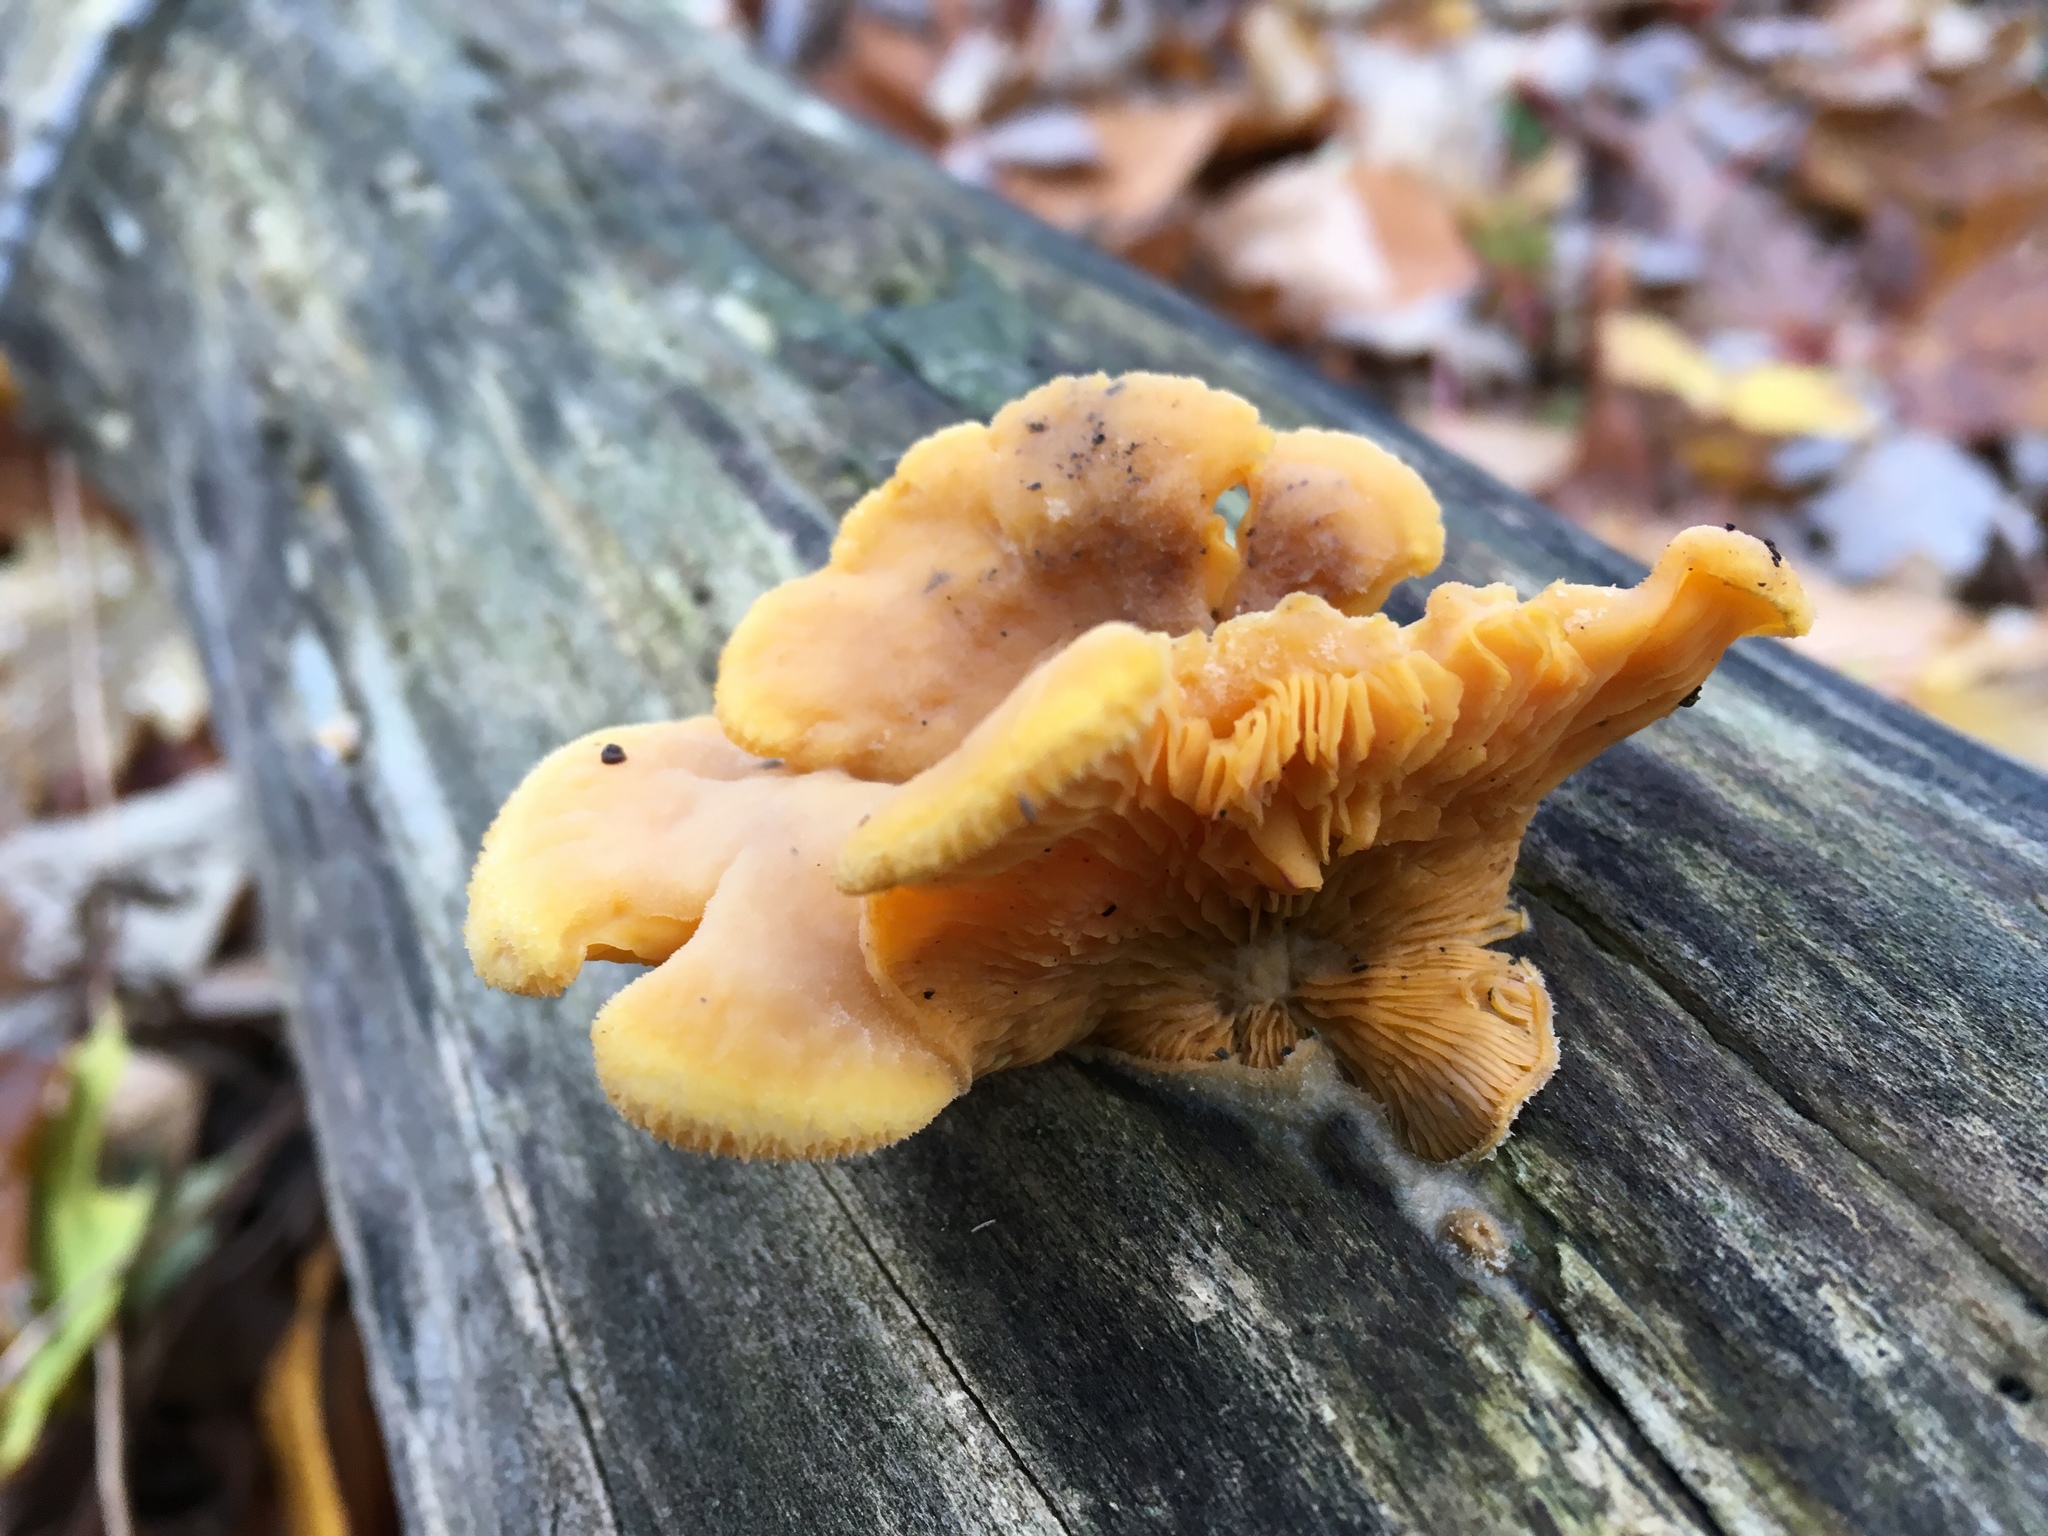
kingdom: Fungi
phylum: Basidiomycota
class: Agaricomycetes
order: Agaricales
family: Phyllotopsidaceae
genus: Phyllotopsis
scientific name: Phyllotopsis nidulans
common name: Orange mock oyster
